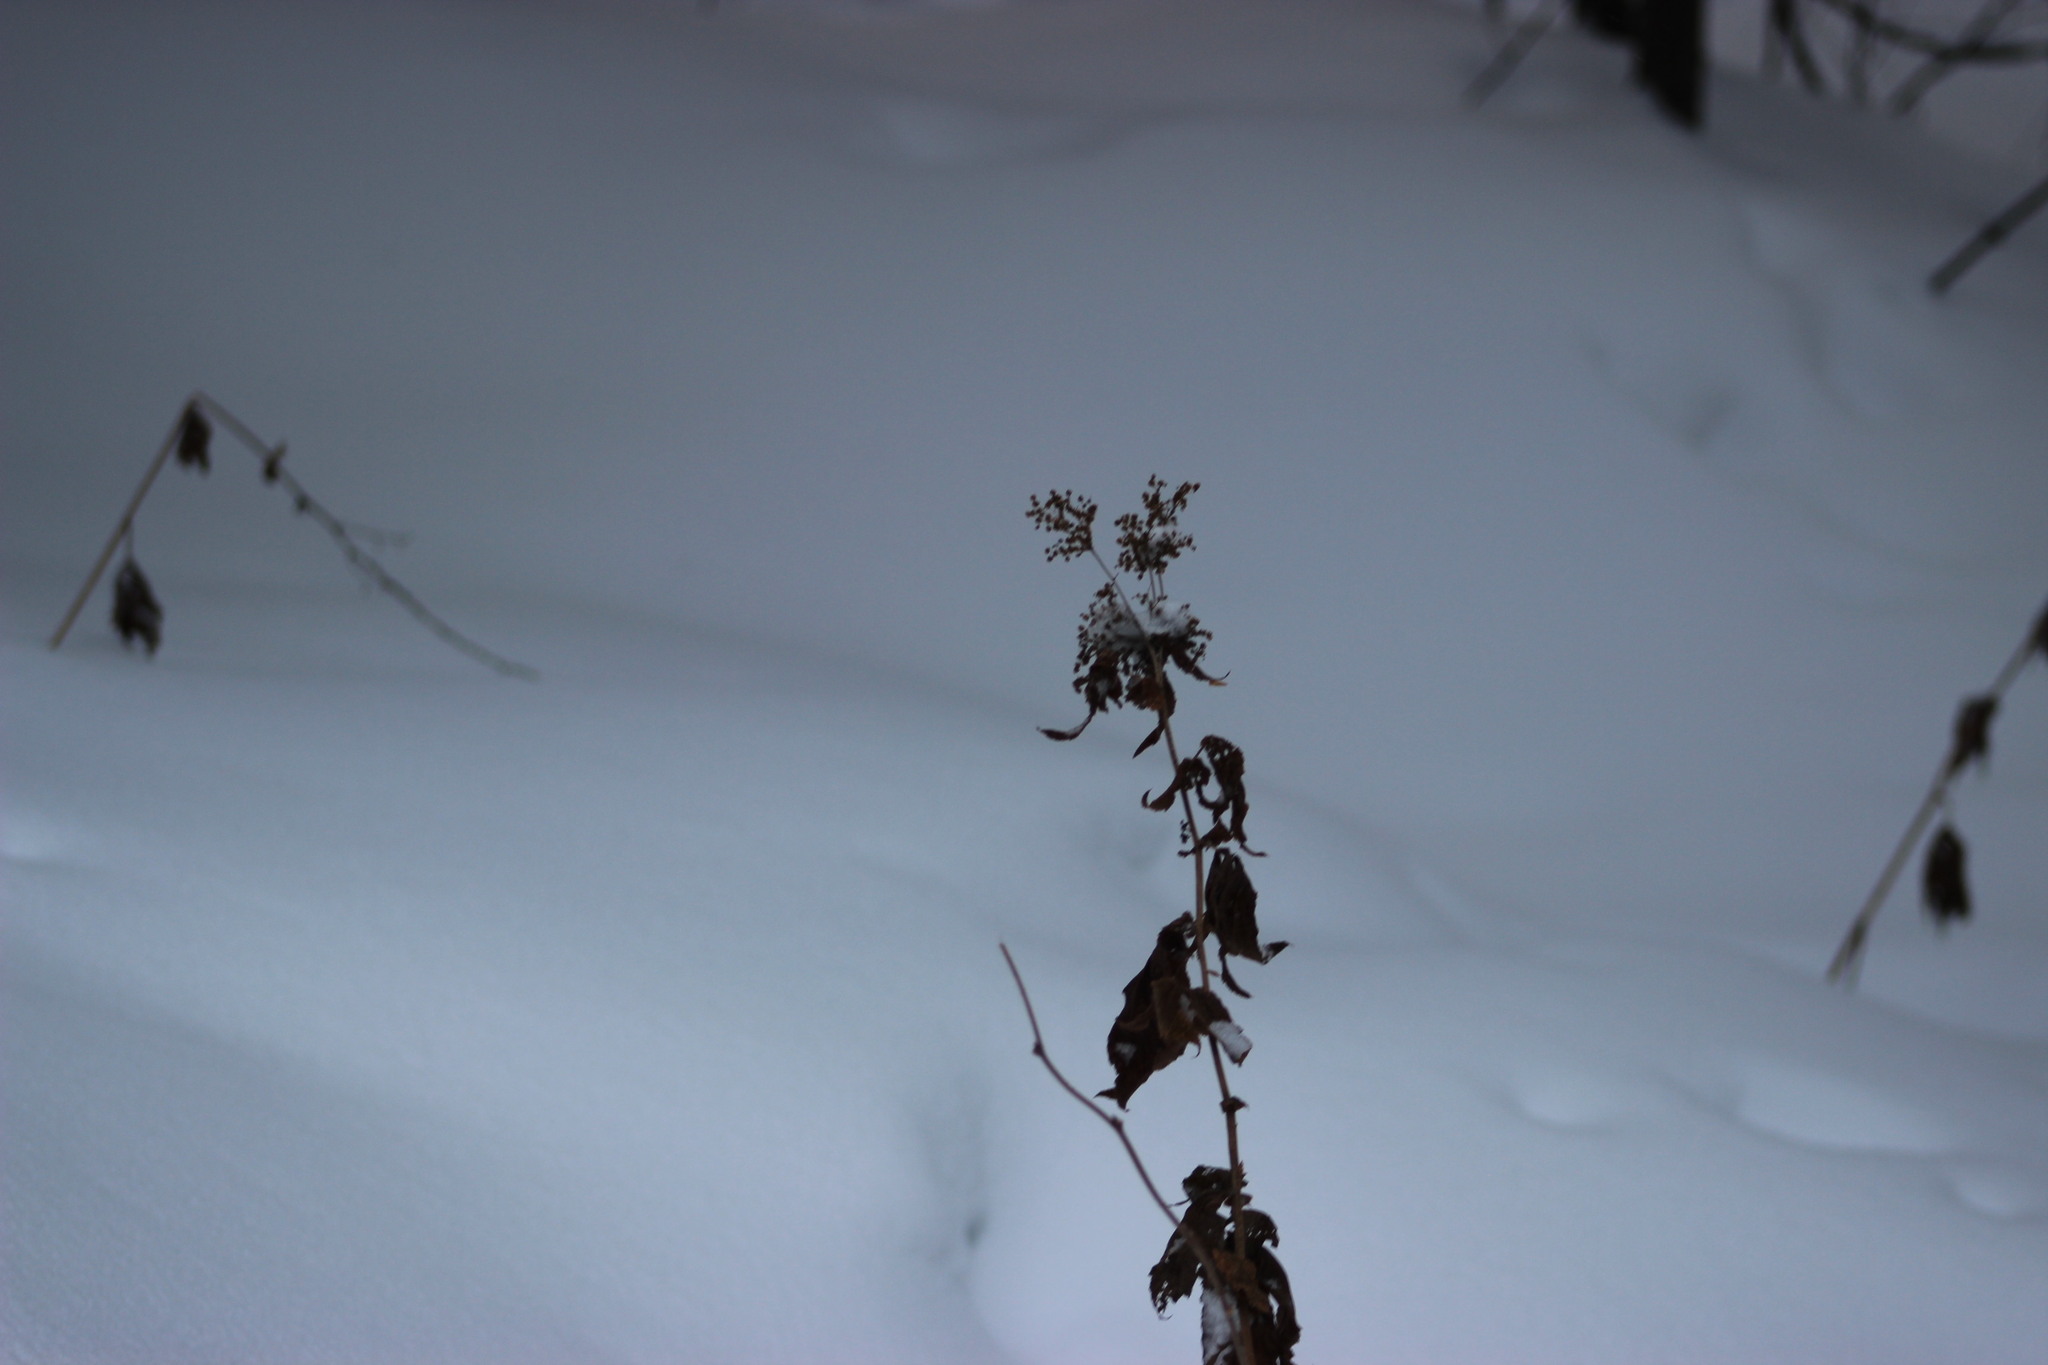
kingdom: Plantae
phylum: Tracheophyta
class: Magnoliopsida
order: Rosales
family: Rosaceae
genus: Filipendula
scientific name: Filipendula ulmaria
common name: Meadowsweet
